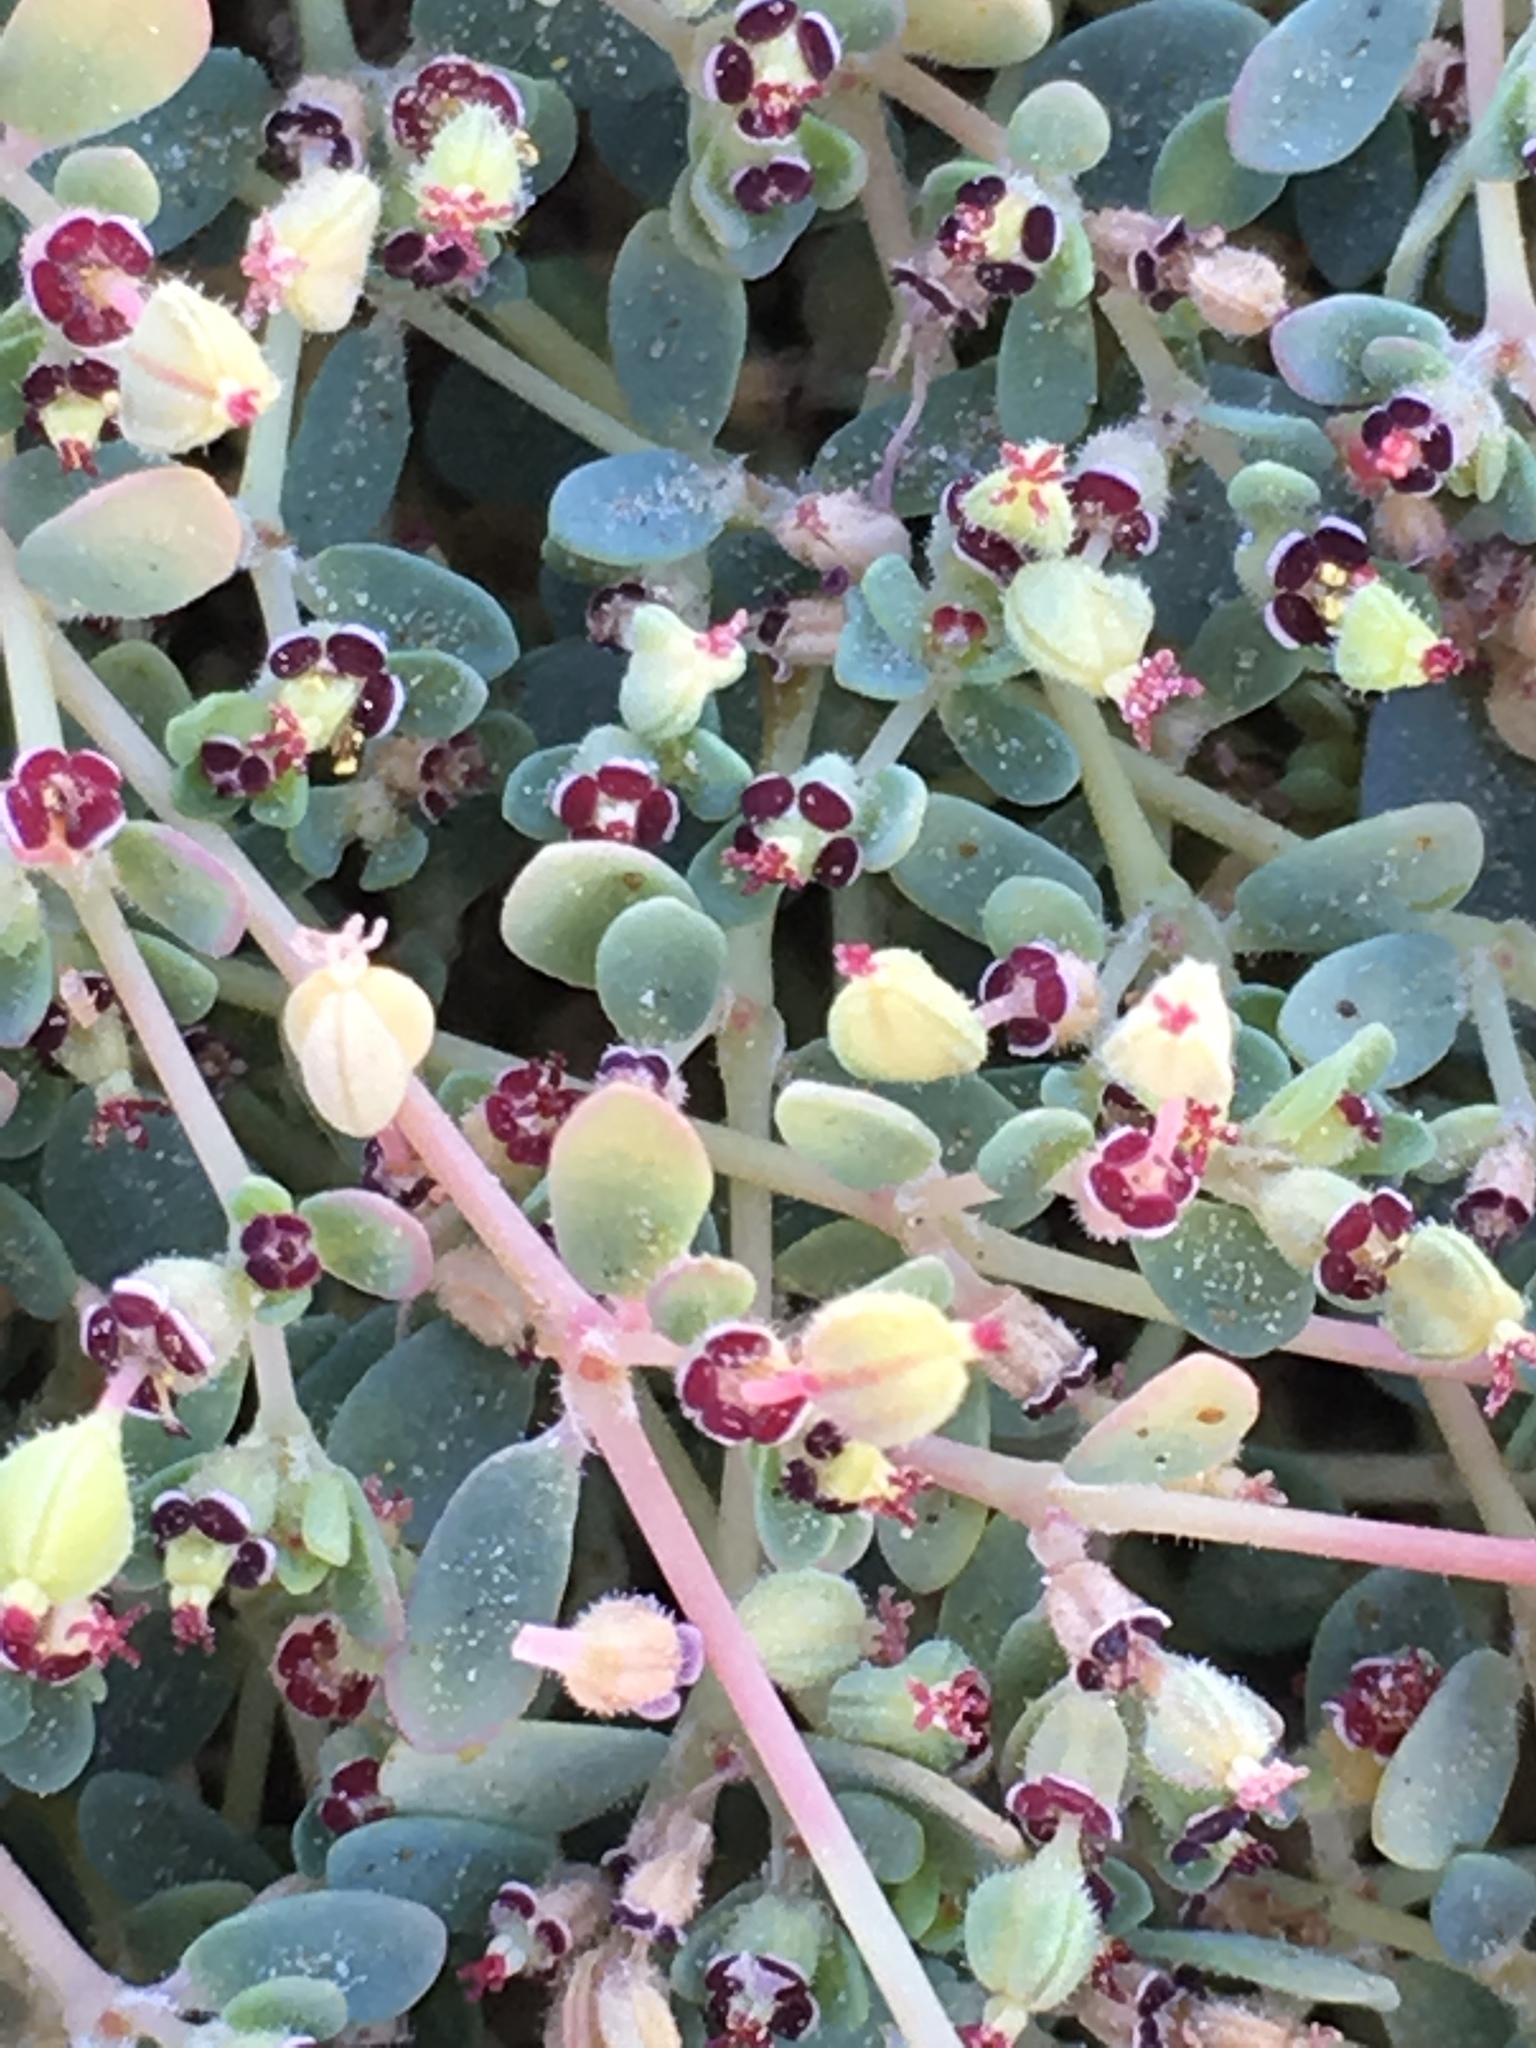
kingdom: Plantae
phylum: Tracheophyta
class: Magnoliopsida
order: Malpighiales
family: Euphorbiaceae
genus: Euphorbia
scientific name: Euphorbia polycarpa
